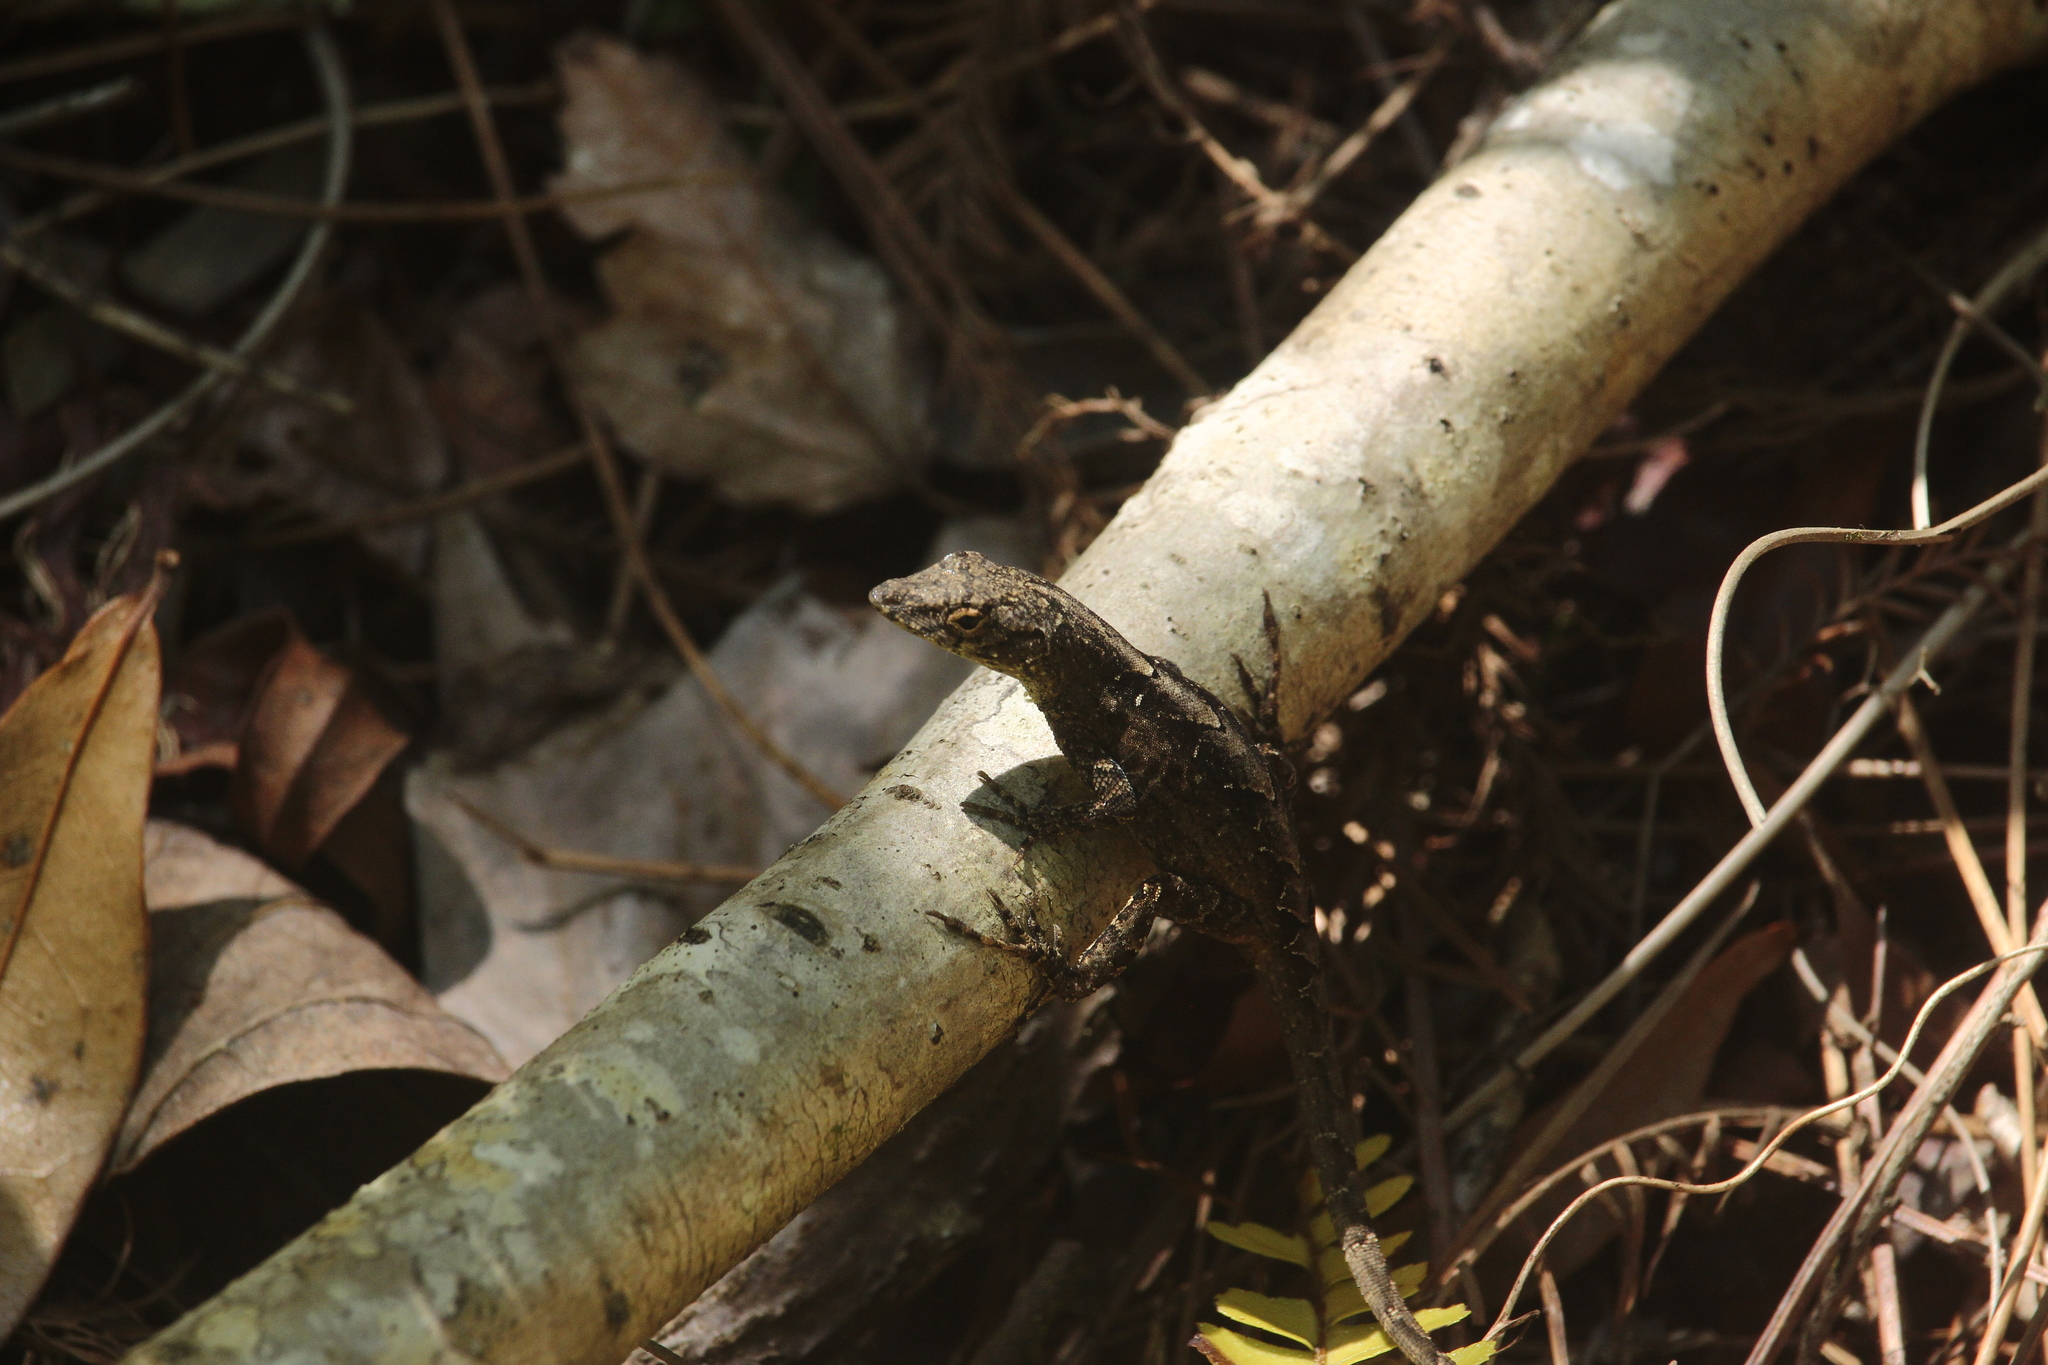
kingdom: Animalia
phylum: Chordata
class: Squamata
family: Dactyloidae
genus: Anolis
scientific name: Anolis sagrei
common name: Brown anole
